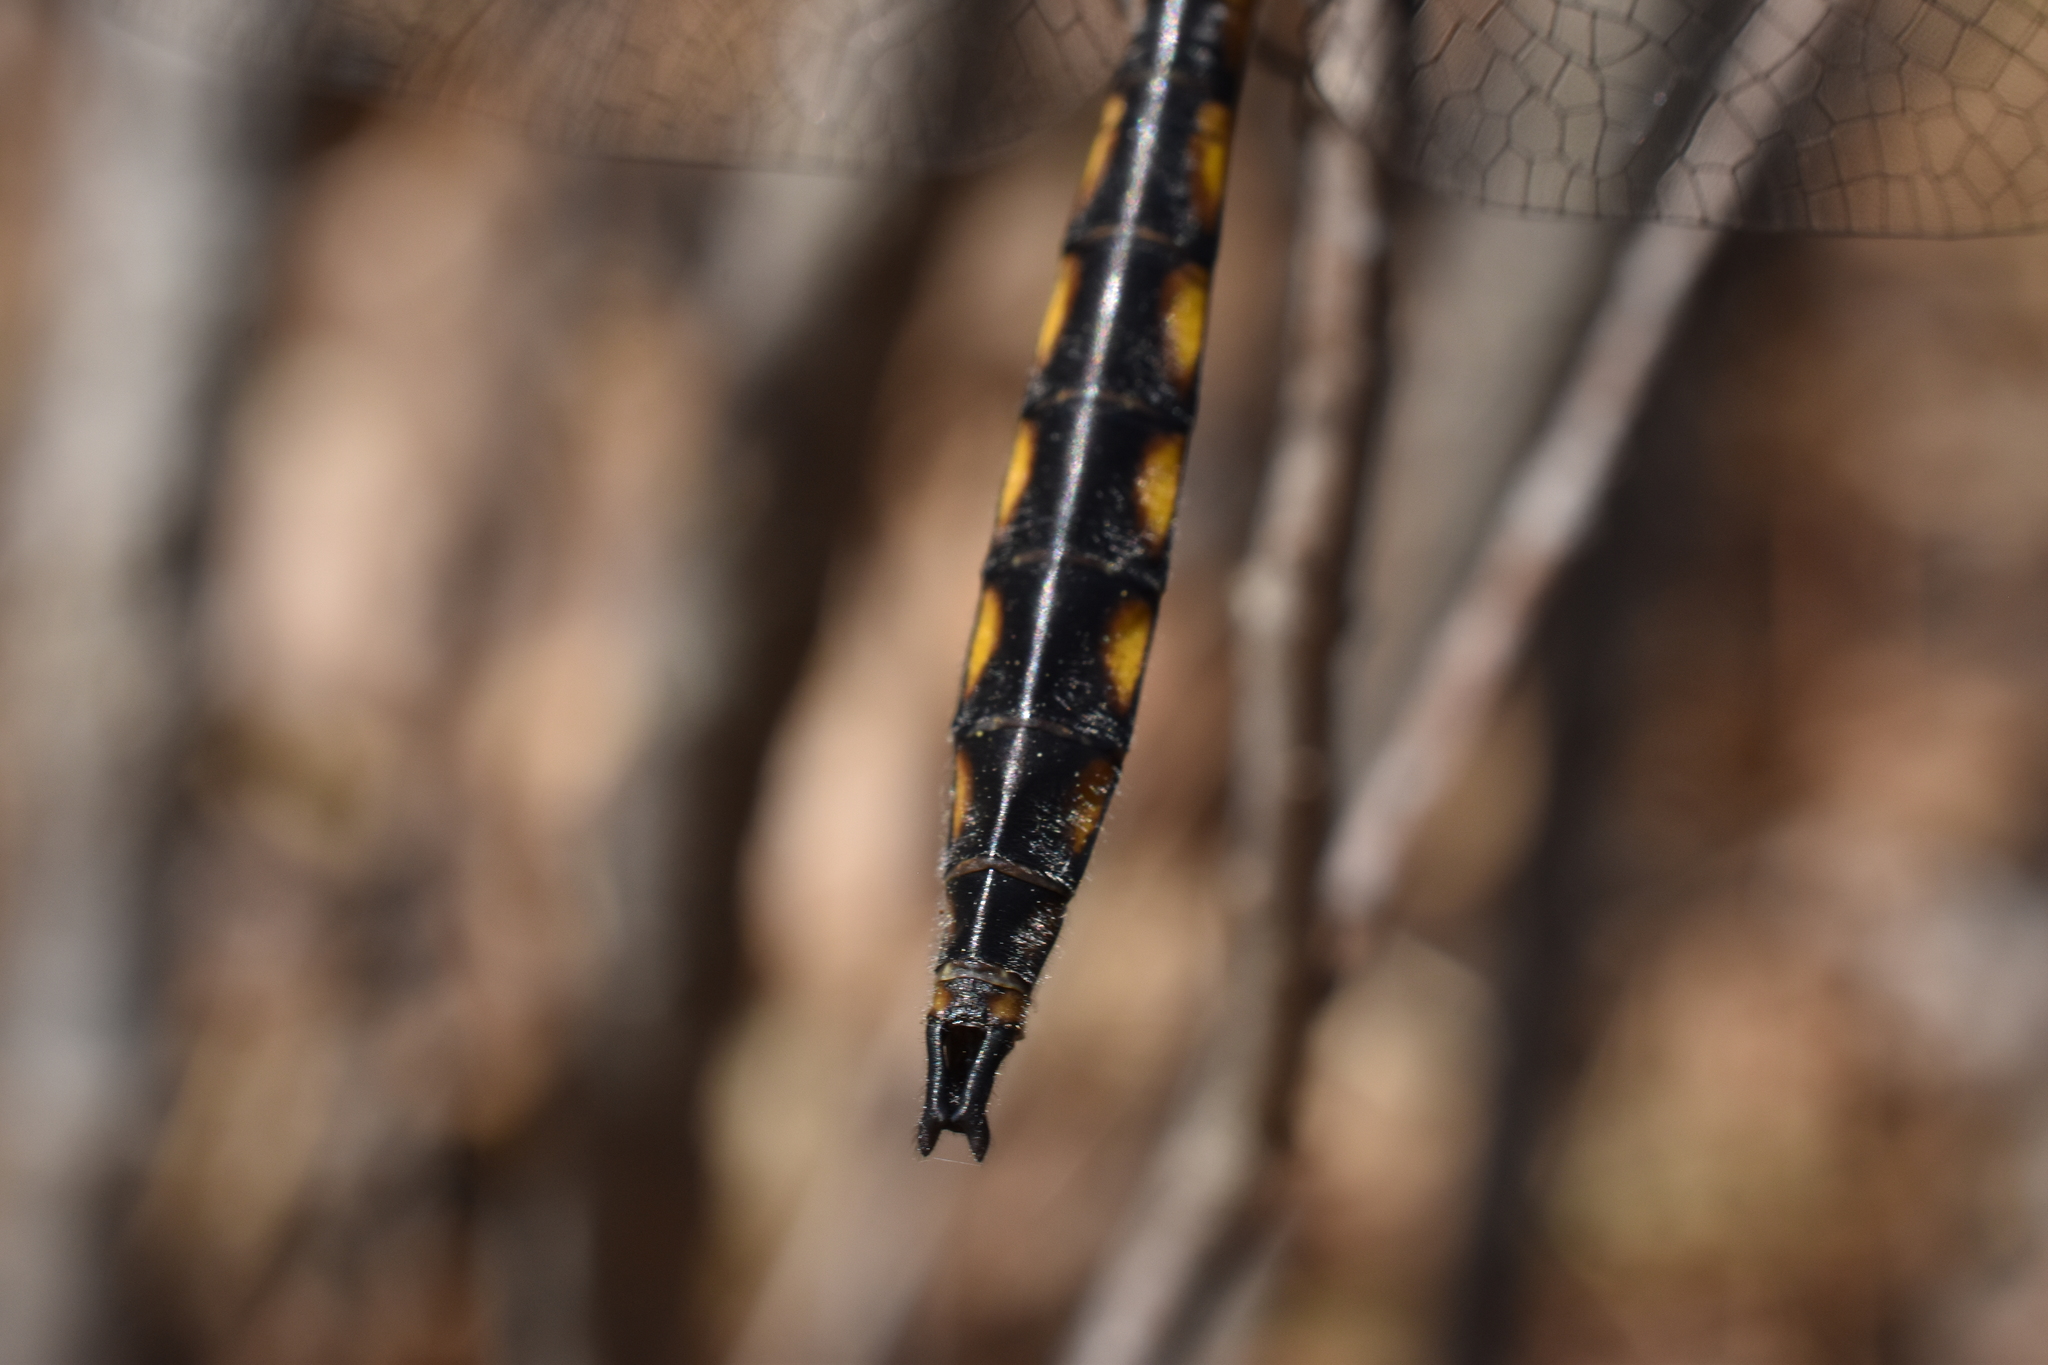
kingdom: Animalia
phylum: Arthropoda
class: Insecta
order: Odonata
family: Corduliidae
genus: Epitheca
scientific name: Epitheca canis
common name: Beaverpond baskettail
